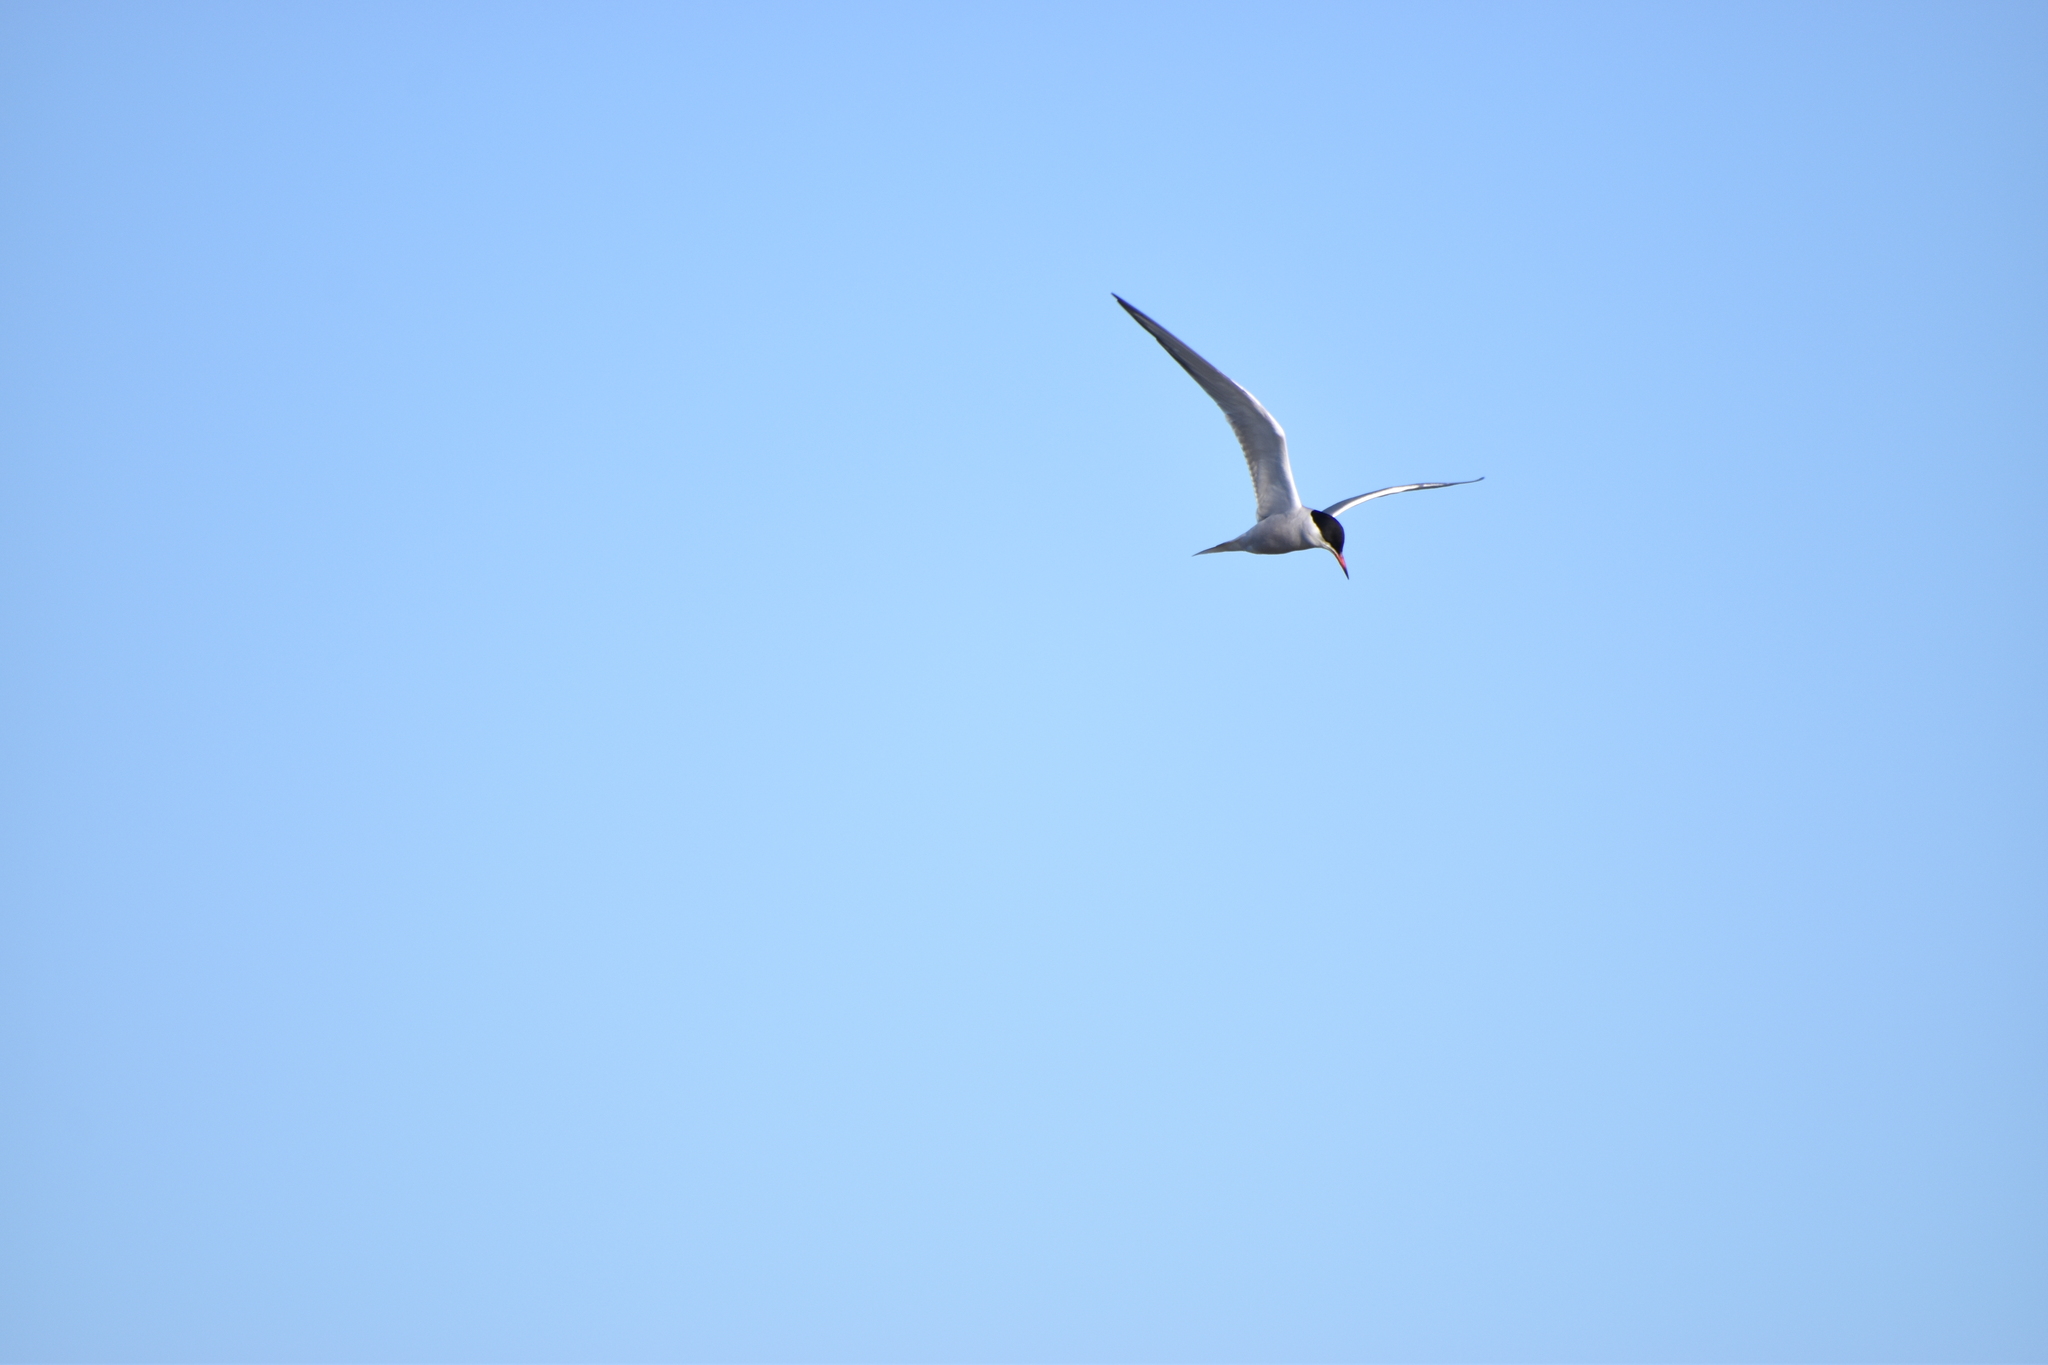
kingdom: Animalia
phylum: Chordata
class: Aves
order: Charadriiformes
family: Laridae
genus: Sterna
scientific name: Sterna hirundo
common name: Common tern
